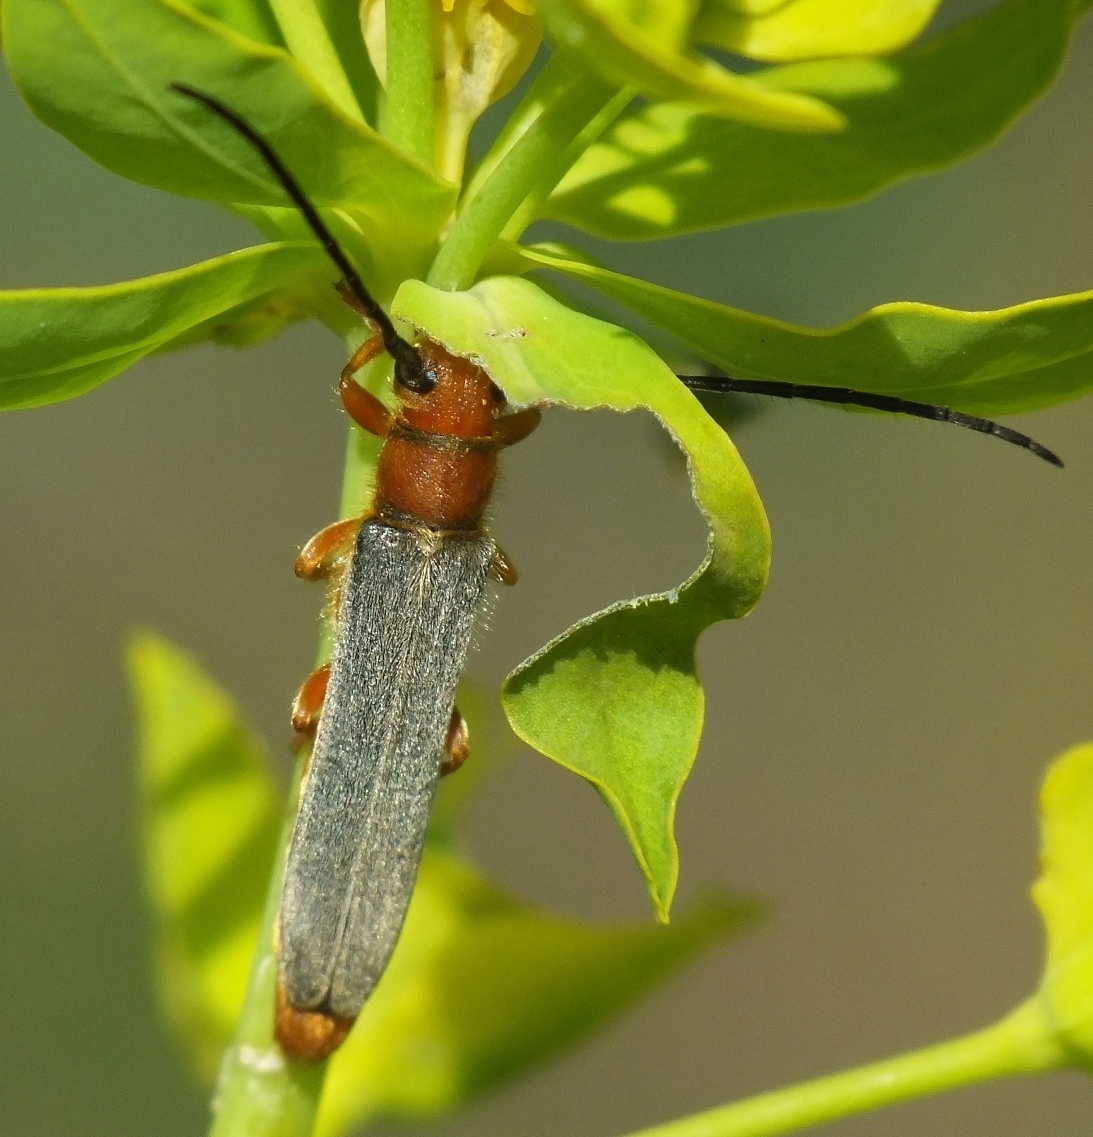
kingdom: Animalia
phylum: Arthropoda
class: Insecta
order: Coleoptera
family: Cerambycidae
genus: Oberea
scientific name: Oberea erythrocephala
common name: Leafy spurge stem boring beetle
